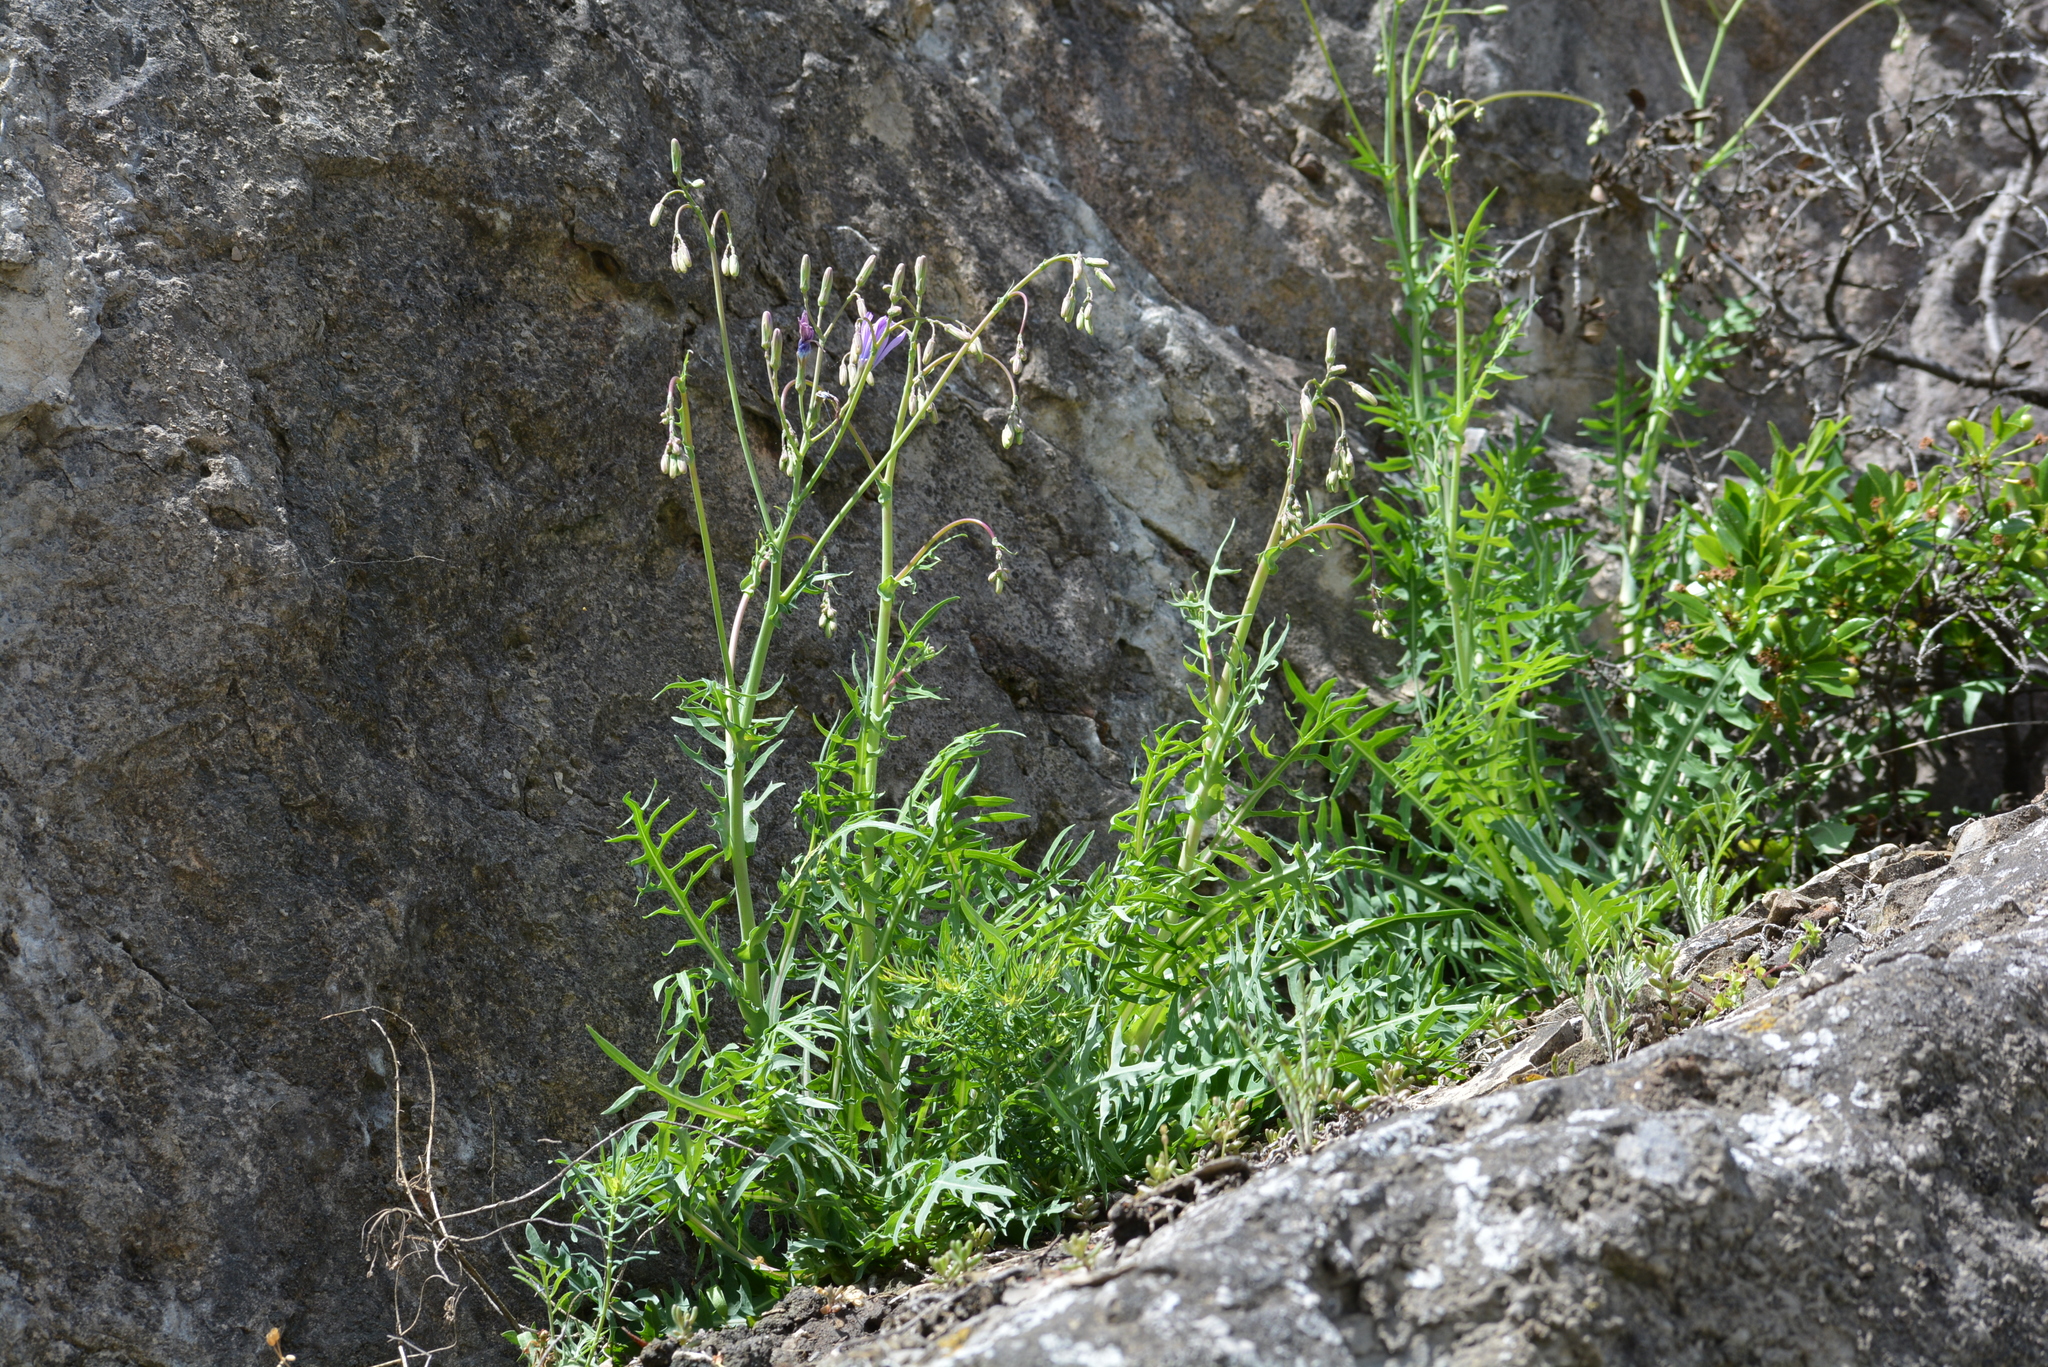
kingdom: Plantae
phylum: Tracheophyta
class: Magnoliopsida
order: Asterales
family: Asteraceae
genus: Lactuca
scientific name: Lactuca perennis
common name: Mountain lettuce
